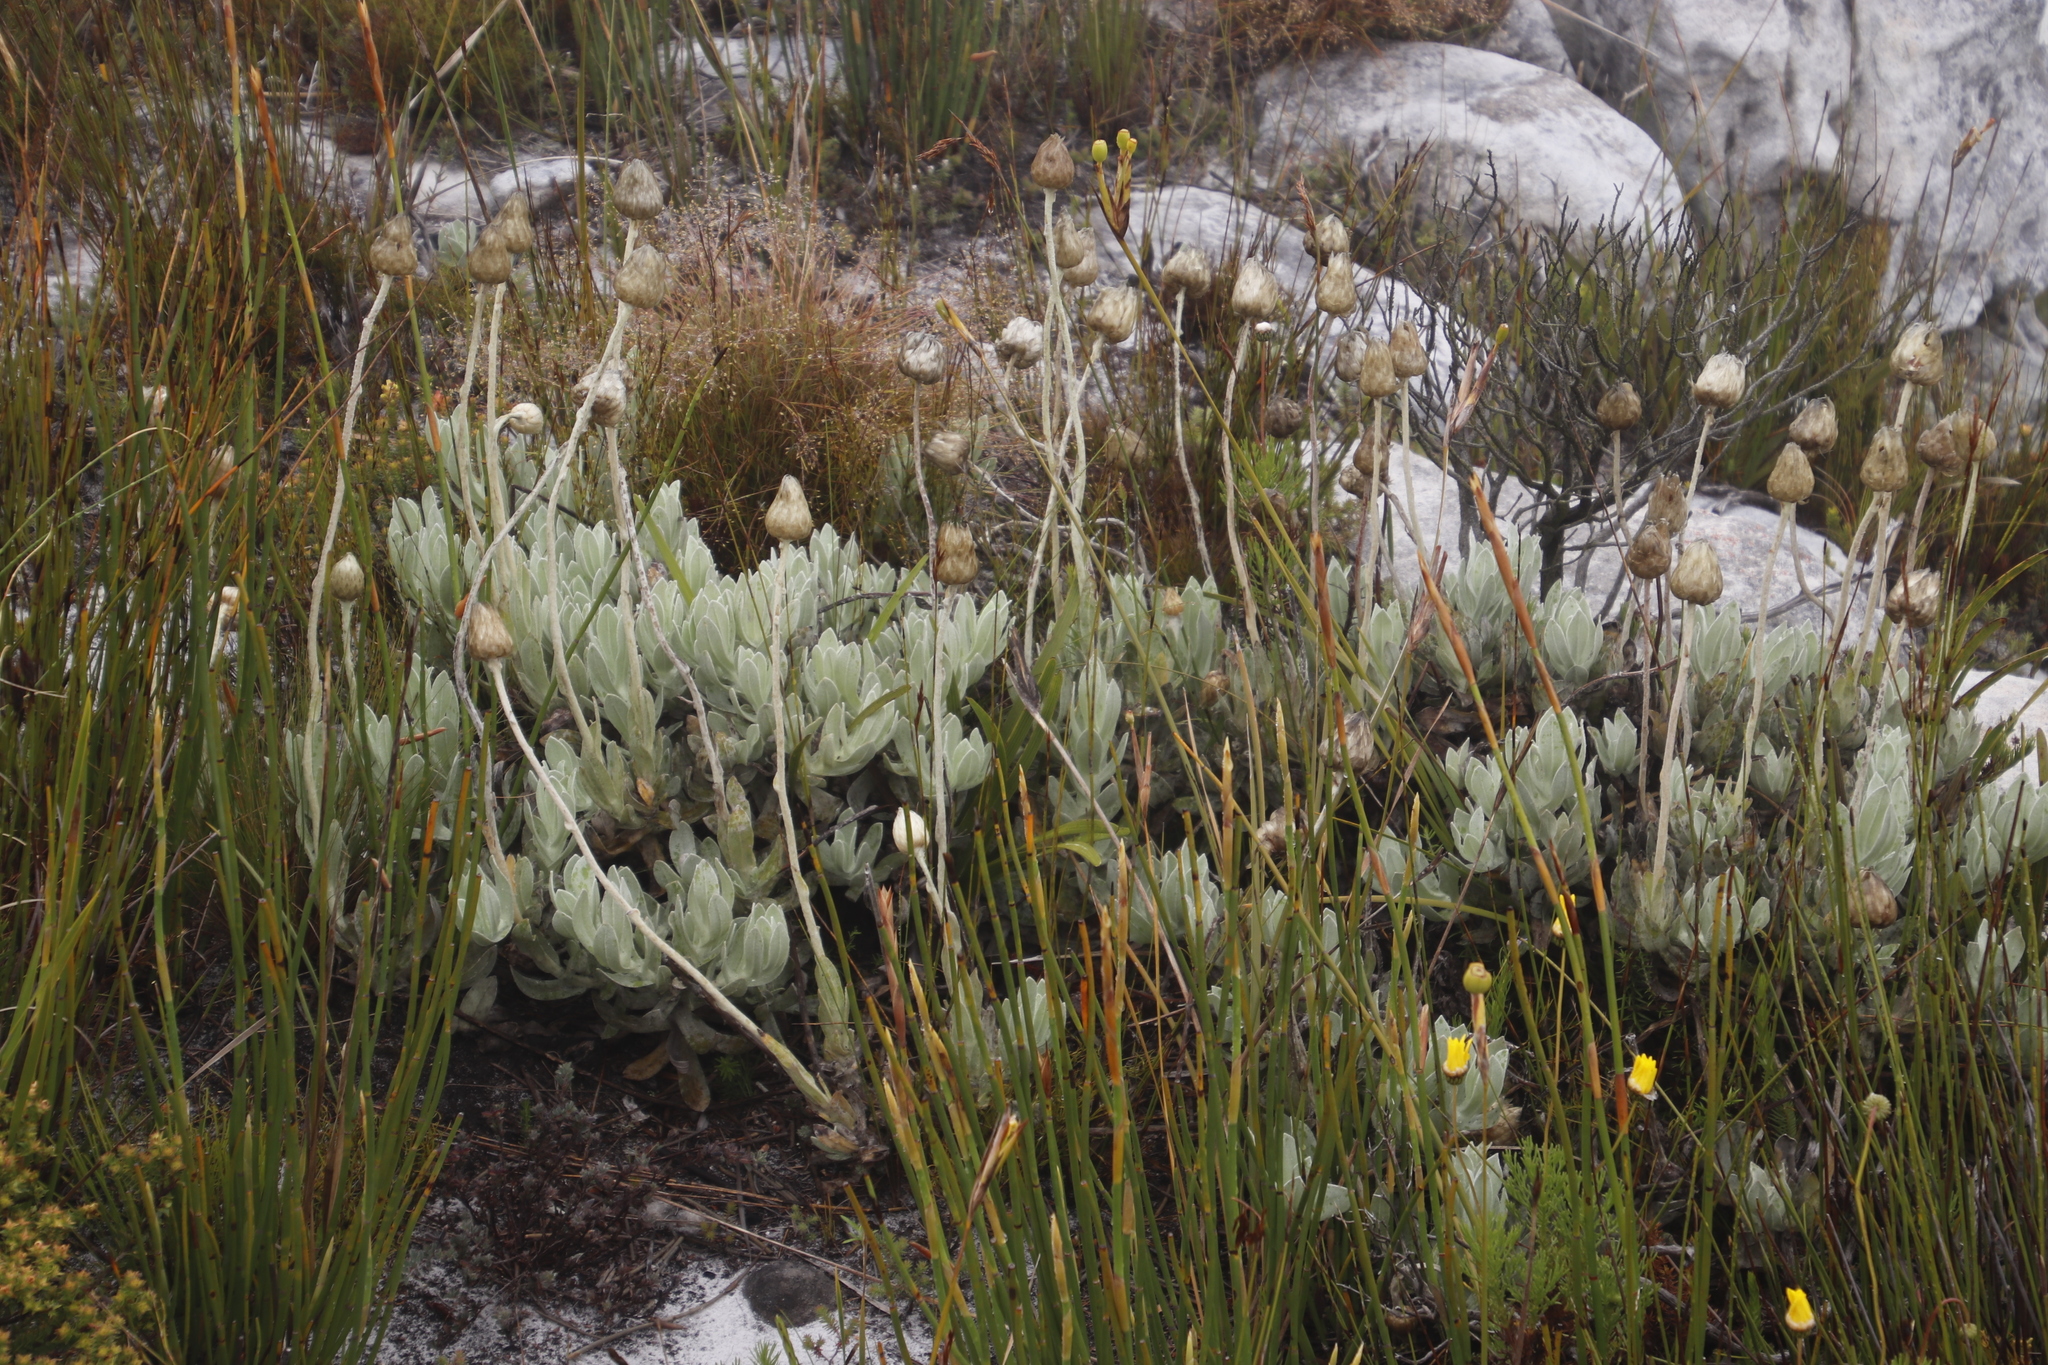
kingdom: Plantae
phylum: Tracheophyta
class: Magnoliopsida
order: Asterales
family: Asteraceae
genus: Syncarpha
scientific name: Syncarpha speciosissima
